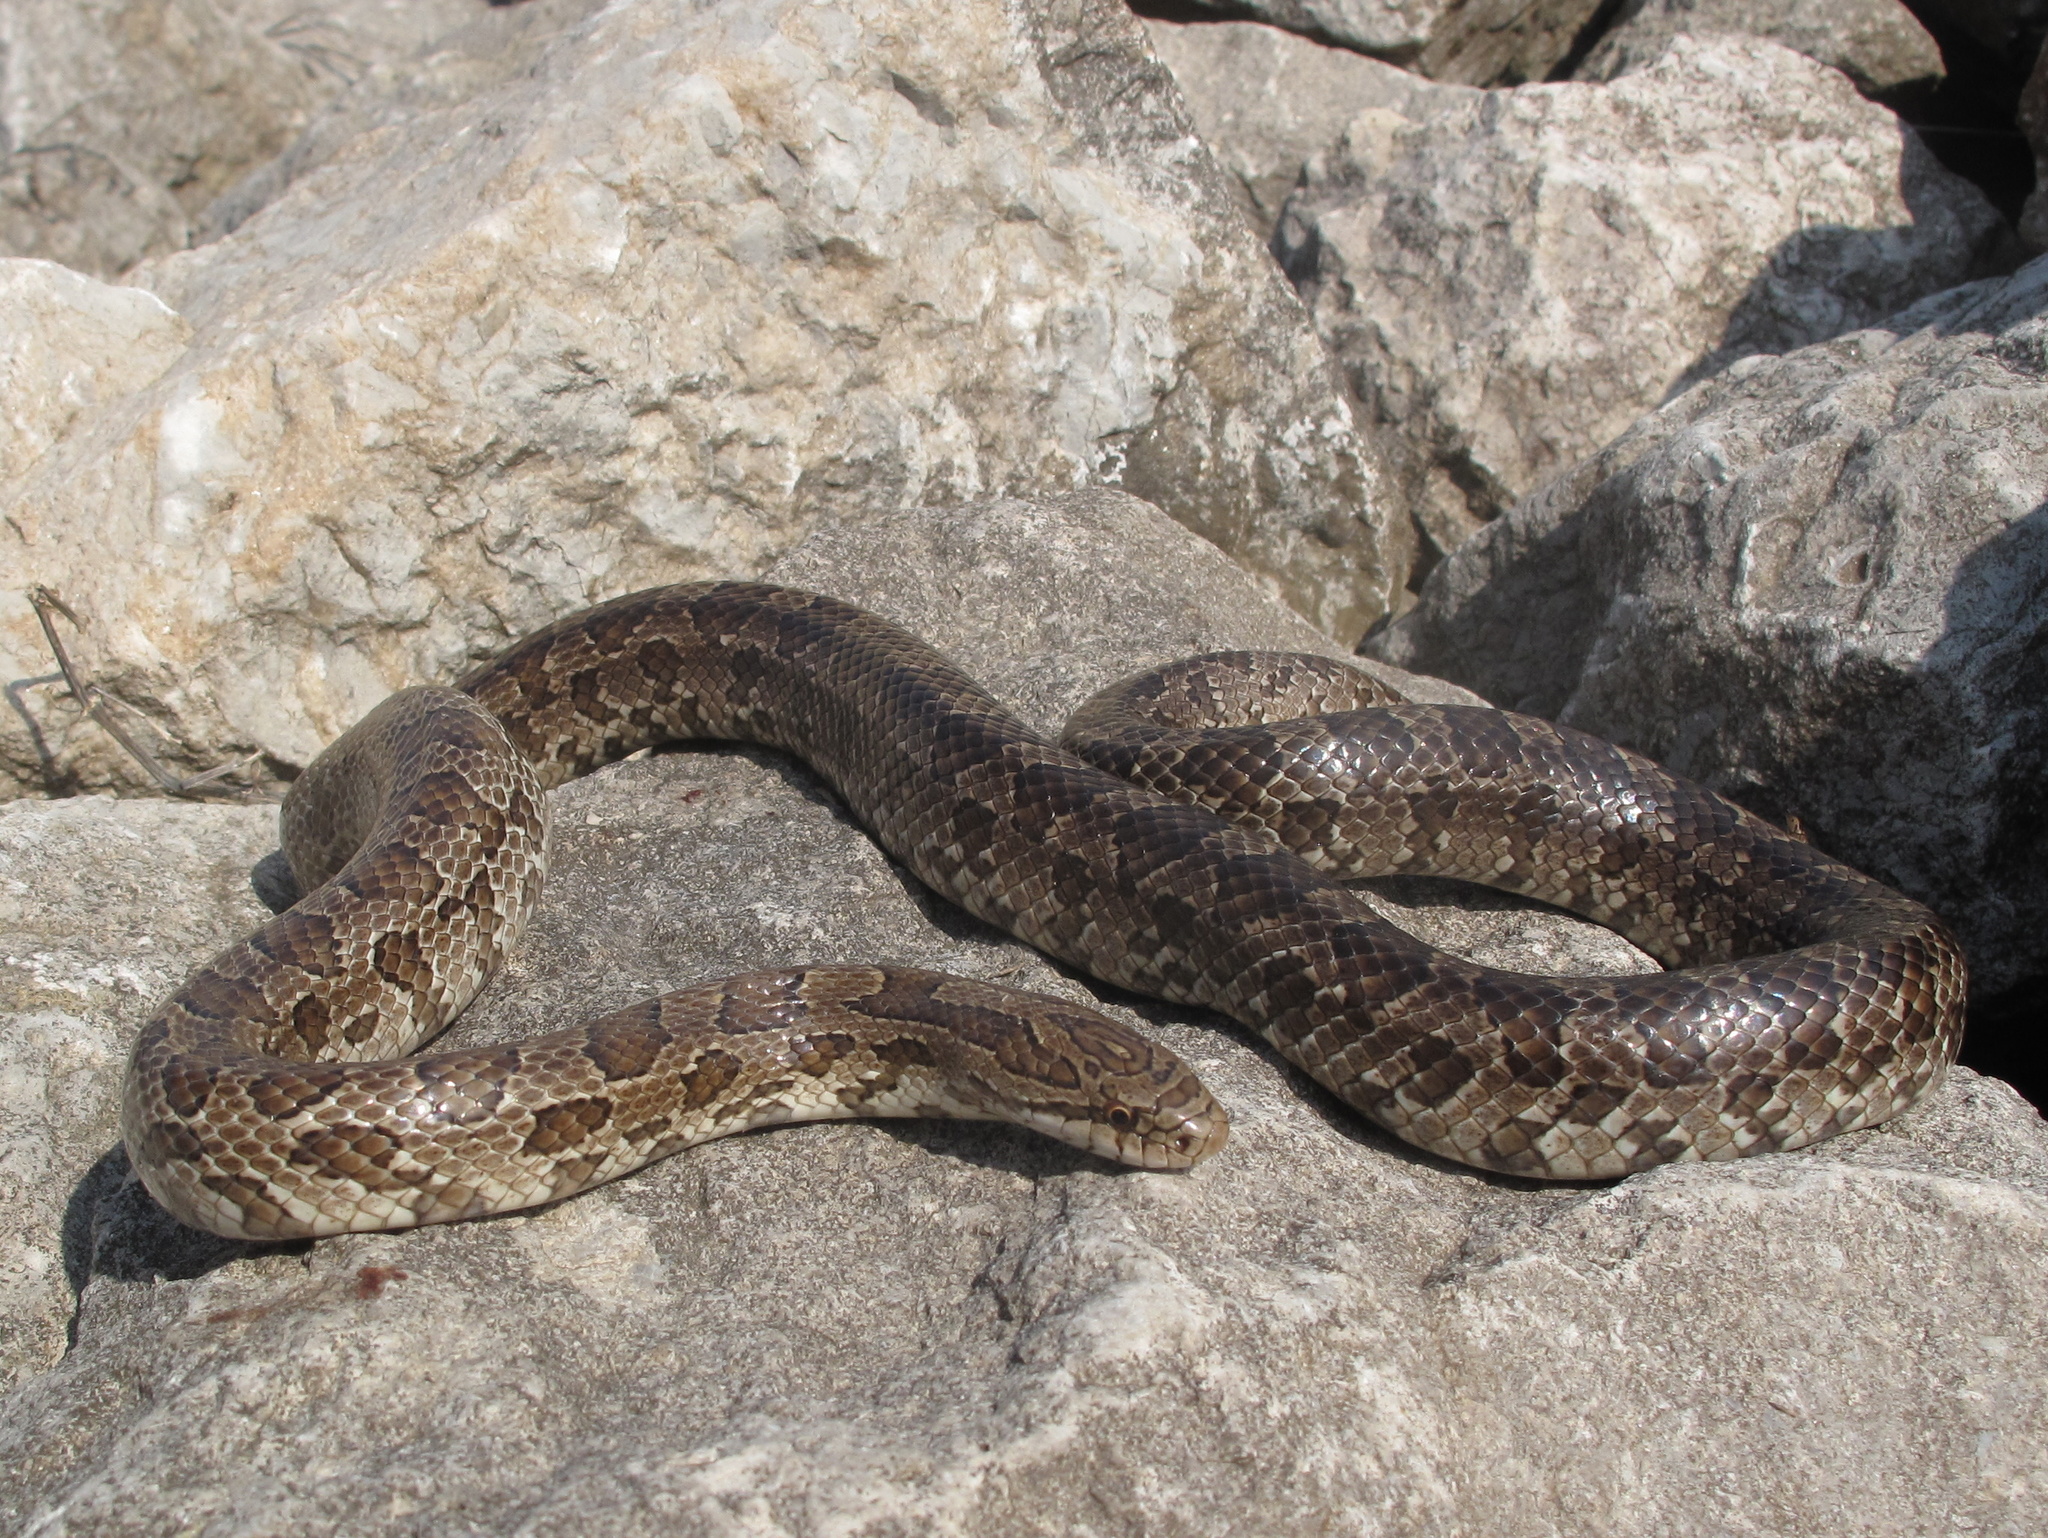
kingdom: Animalia
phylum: Chordata
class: Squamata
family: Colubridae
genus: Lampropeltis
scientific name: Lampropeltis calligaster
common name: Prairie kingsnake
